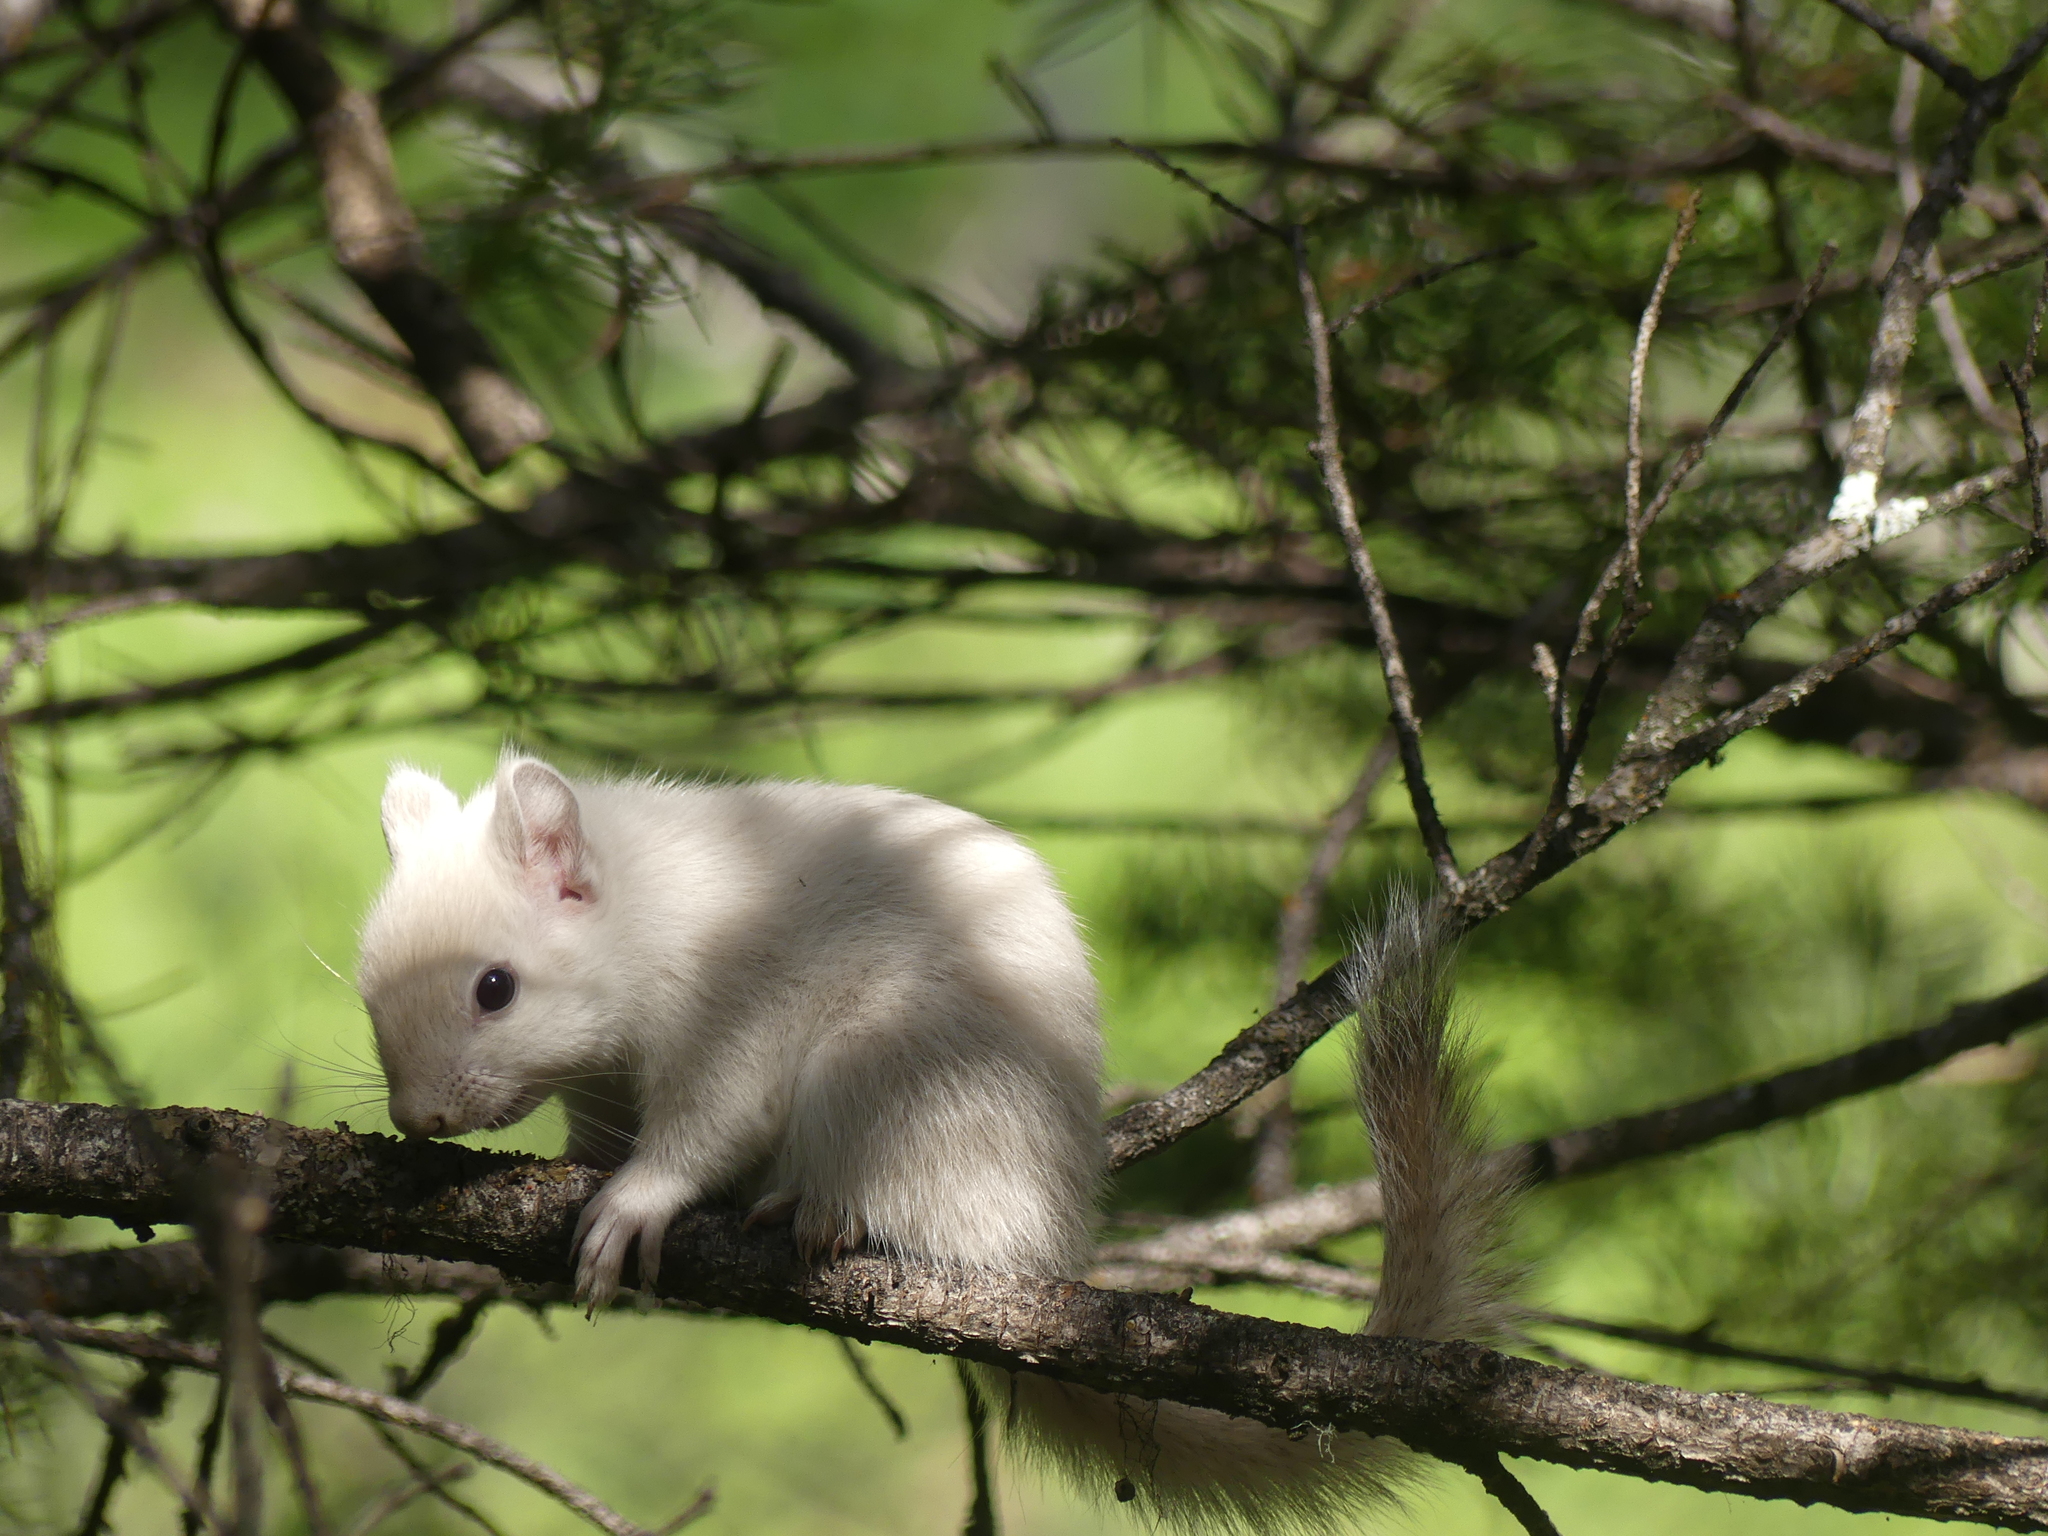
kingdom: Animalia
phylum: Chordata
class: Mammalia
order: Rodentia
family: Sciuridae
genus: Tamiasciurus
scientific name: Tamiasciurus hudsonicus
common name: Red squirrel
